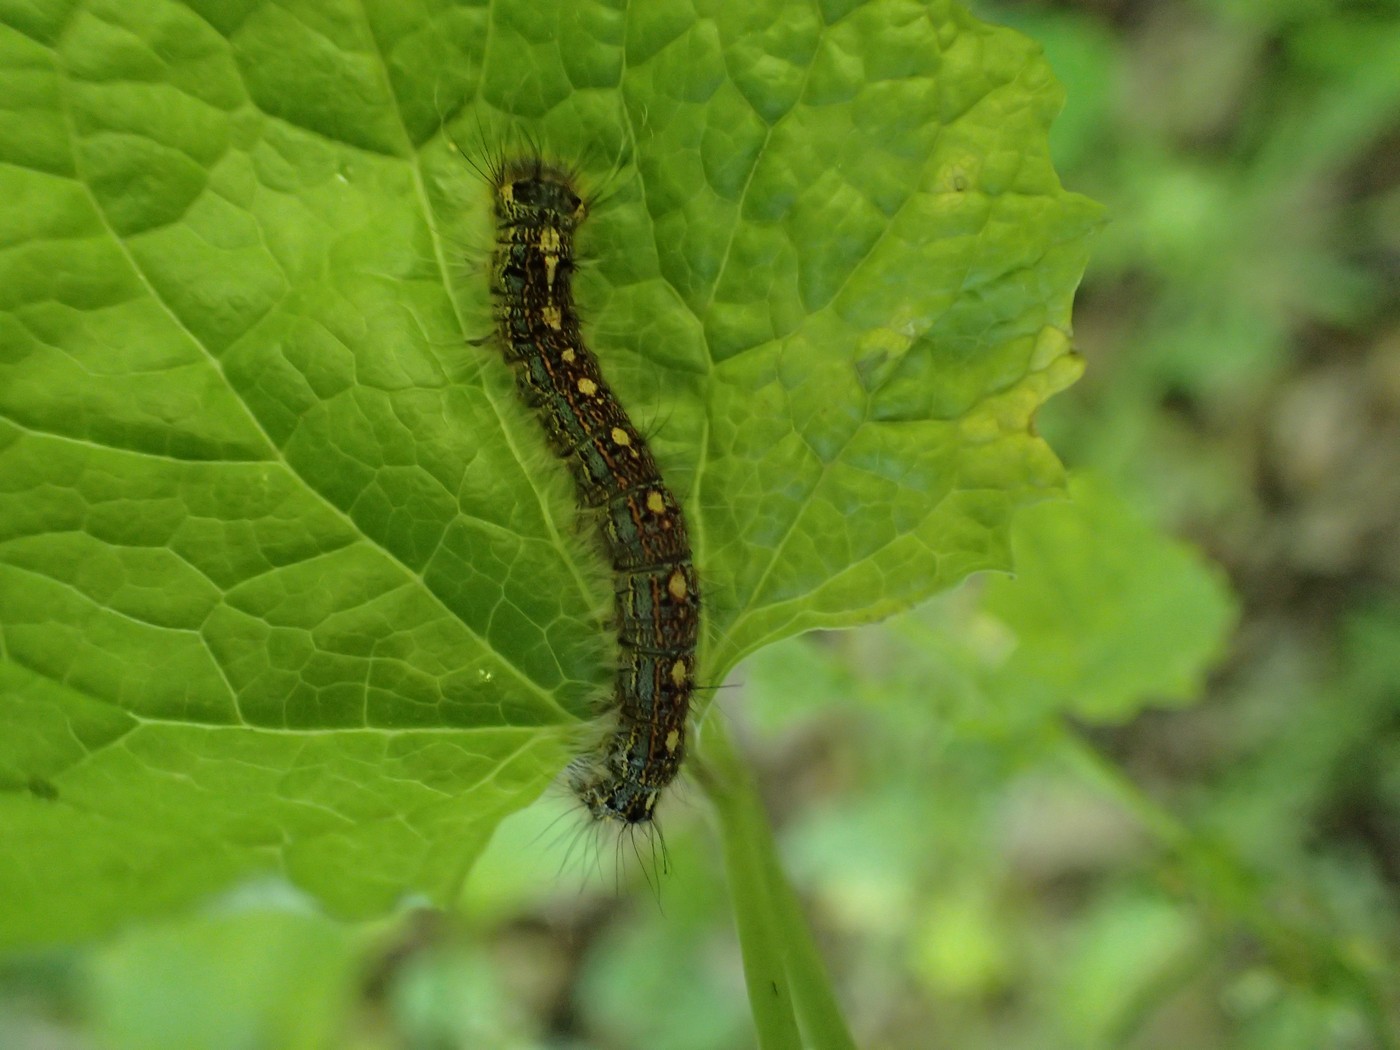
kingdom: Animalia
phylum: Arthropoda
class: Insecta
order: Lepidoptera
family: Lasiocampidae
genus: Malacosoma
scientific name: Malacosoma disstria
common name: Forest tent caterpillar
